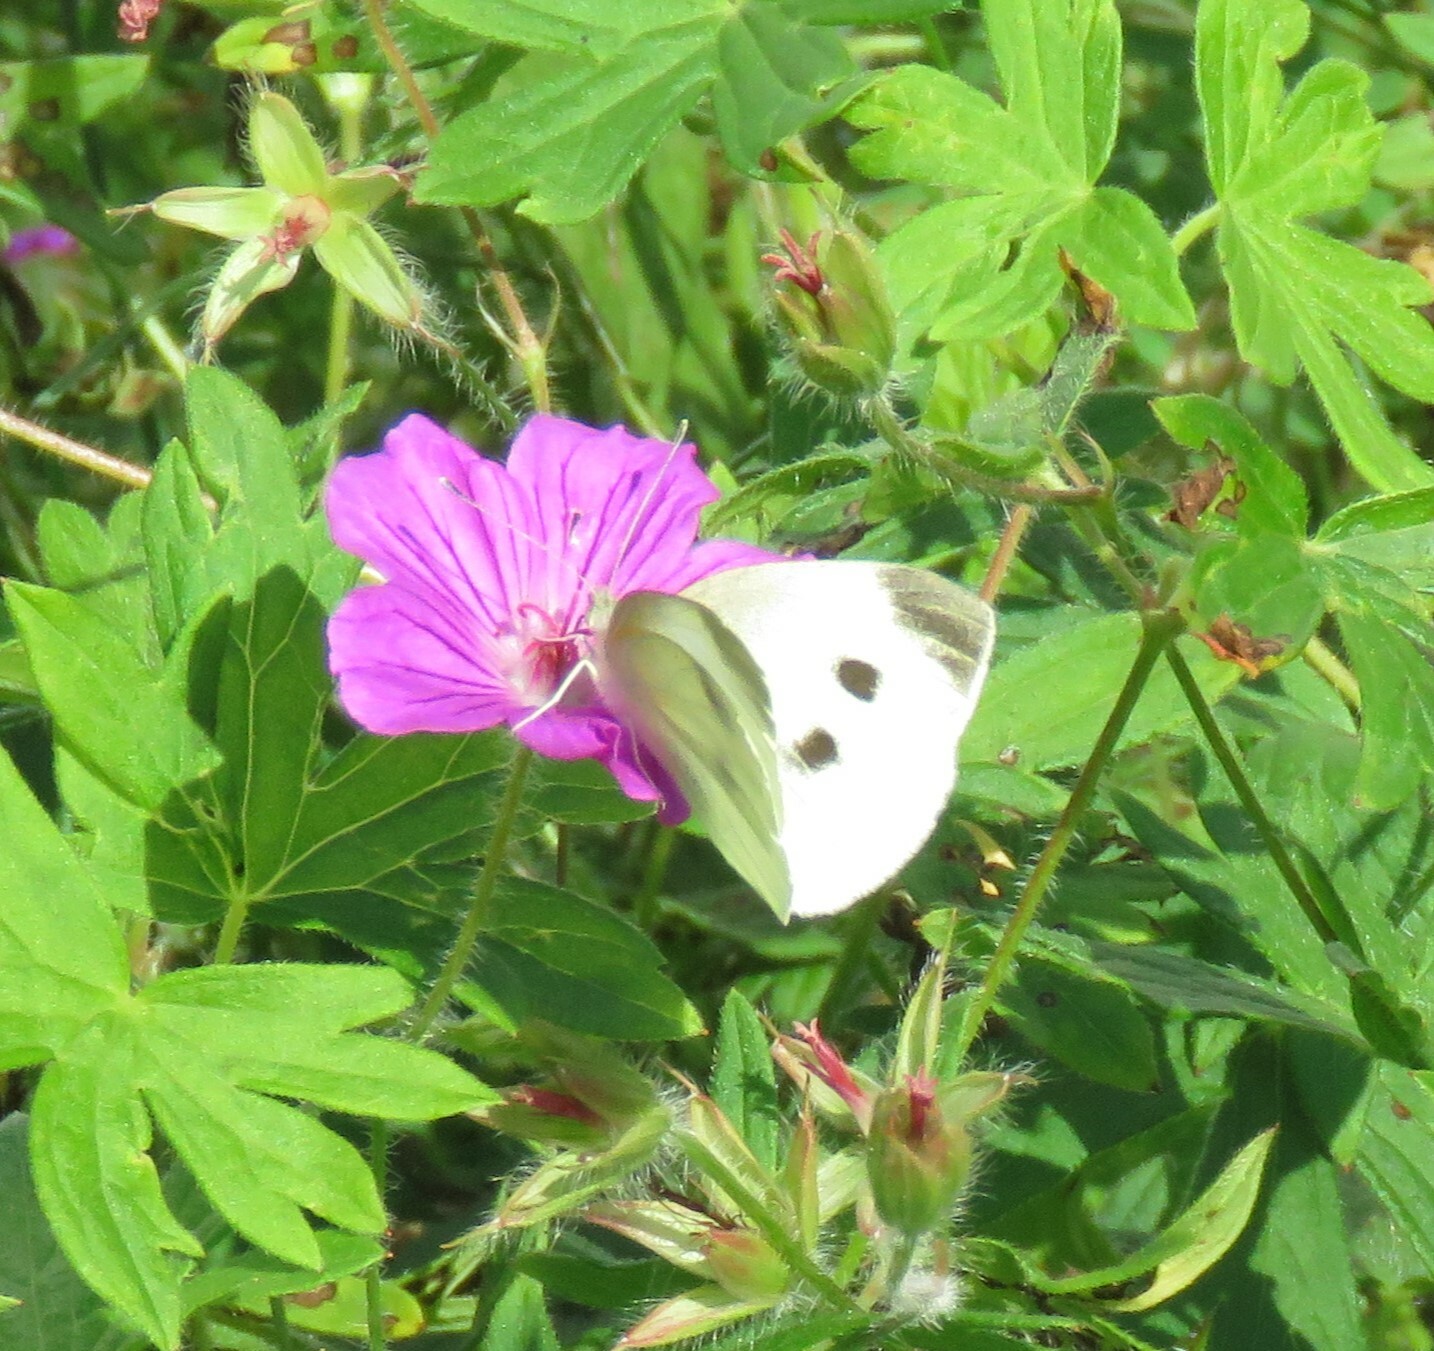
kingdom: Animalia
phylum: Arthropoda
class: Insecta
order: Lepidoptera
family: Pieridae
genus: Pieris
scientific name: Pieris rapae
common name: Small white
